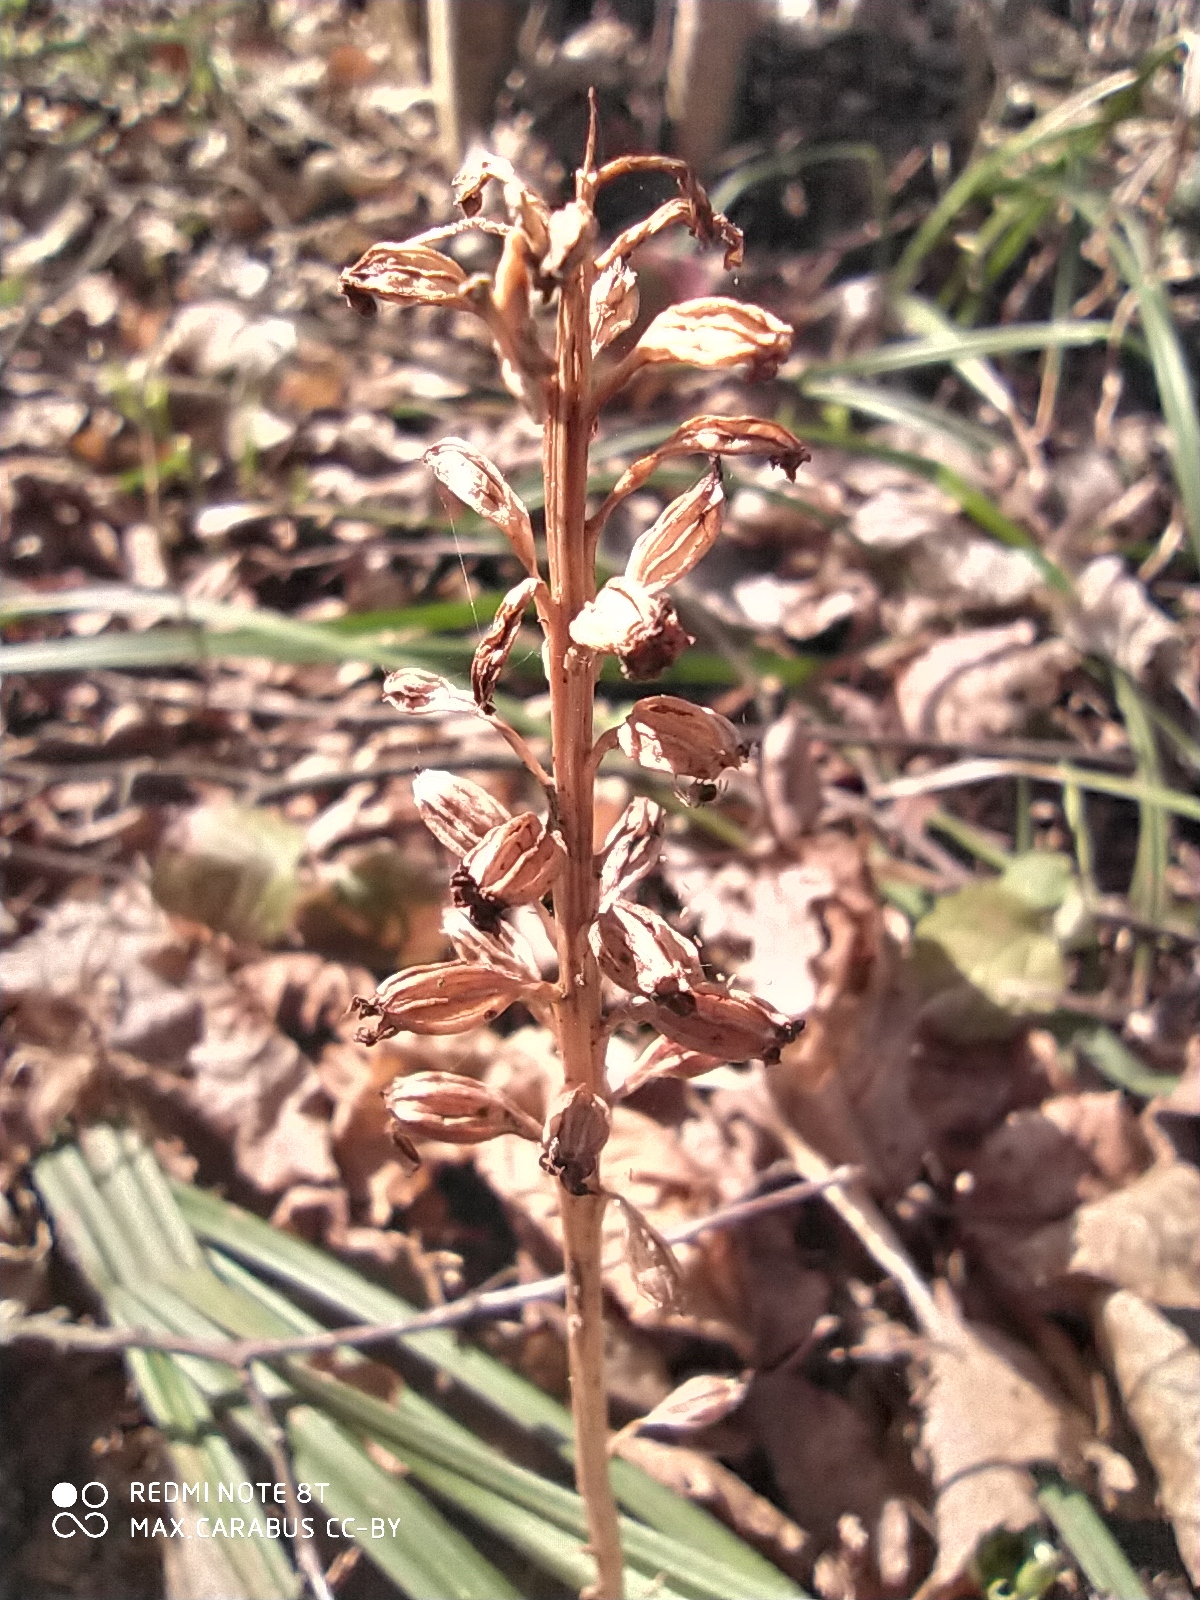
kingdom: Plantae
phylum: Tracheophyta
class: Liliopsida
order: Asparagales
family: Orchidaceae
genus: Neottia
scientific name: Neottia nidus-avis
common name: Bird's-nest orchid
